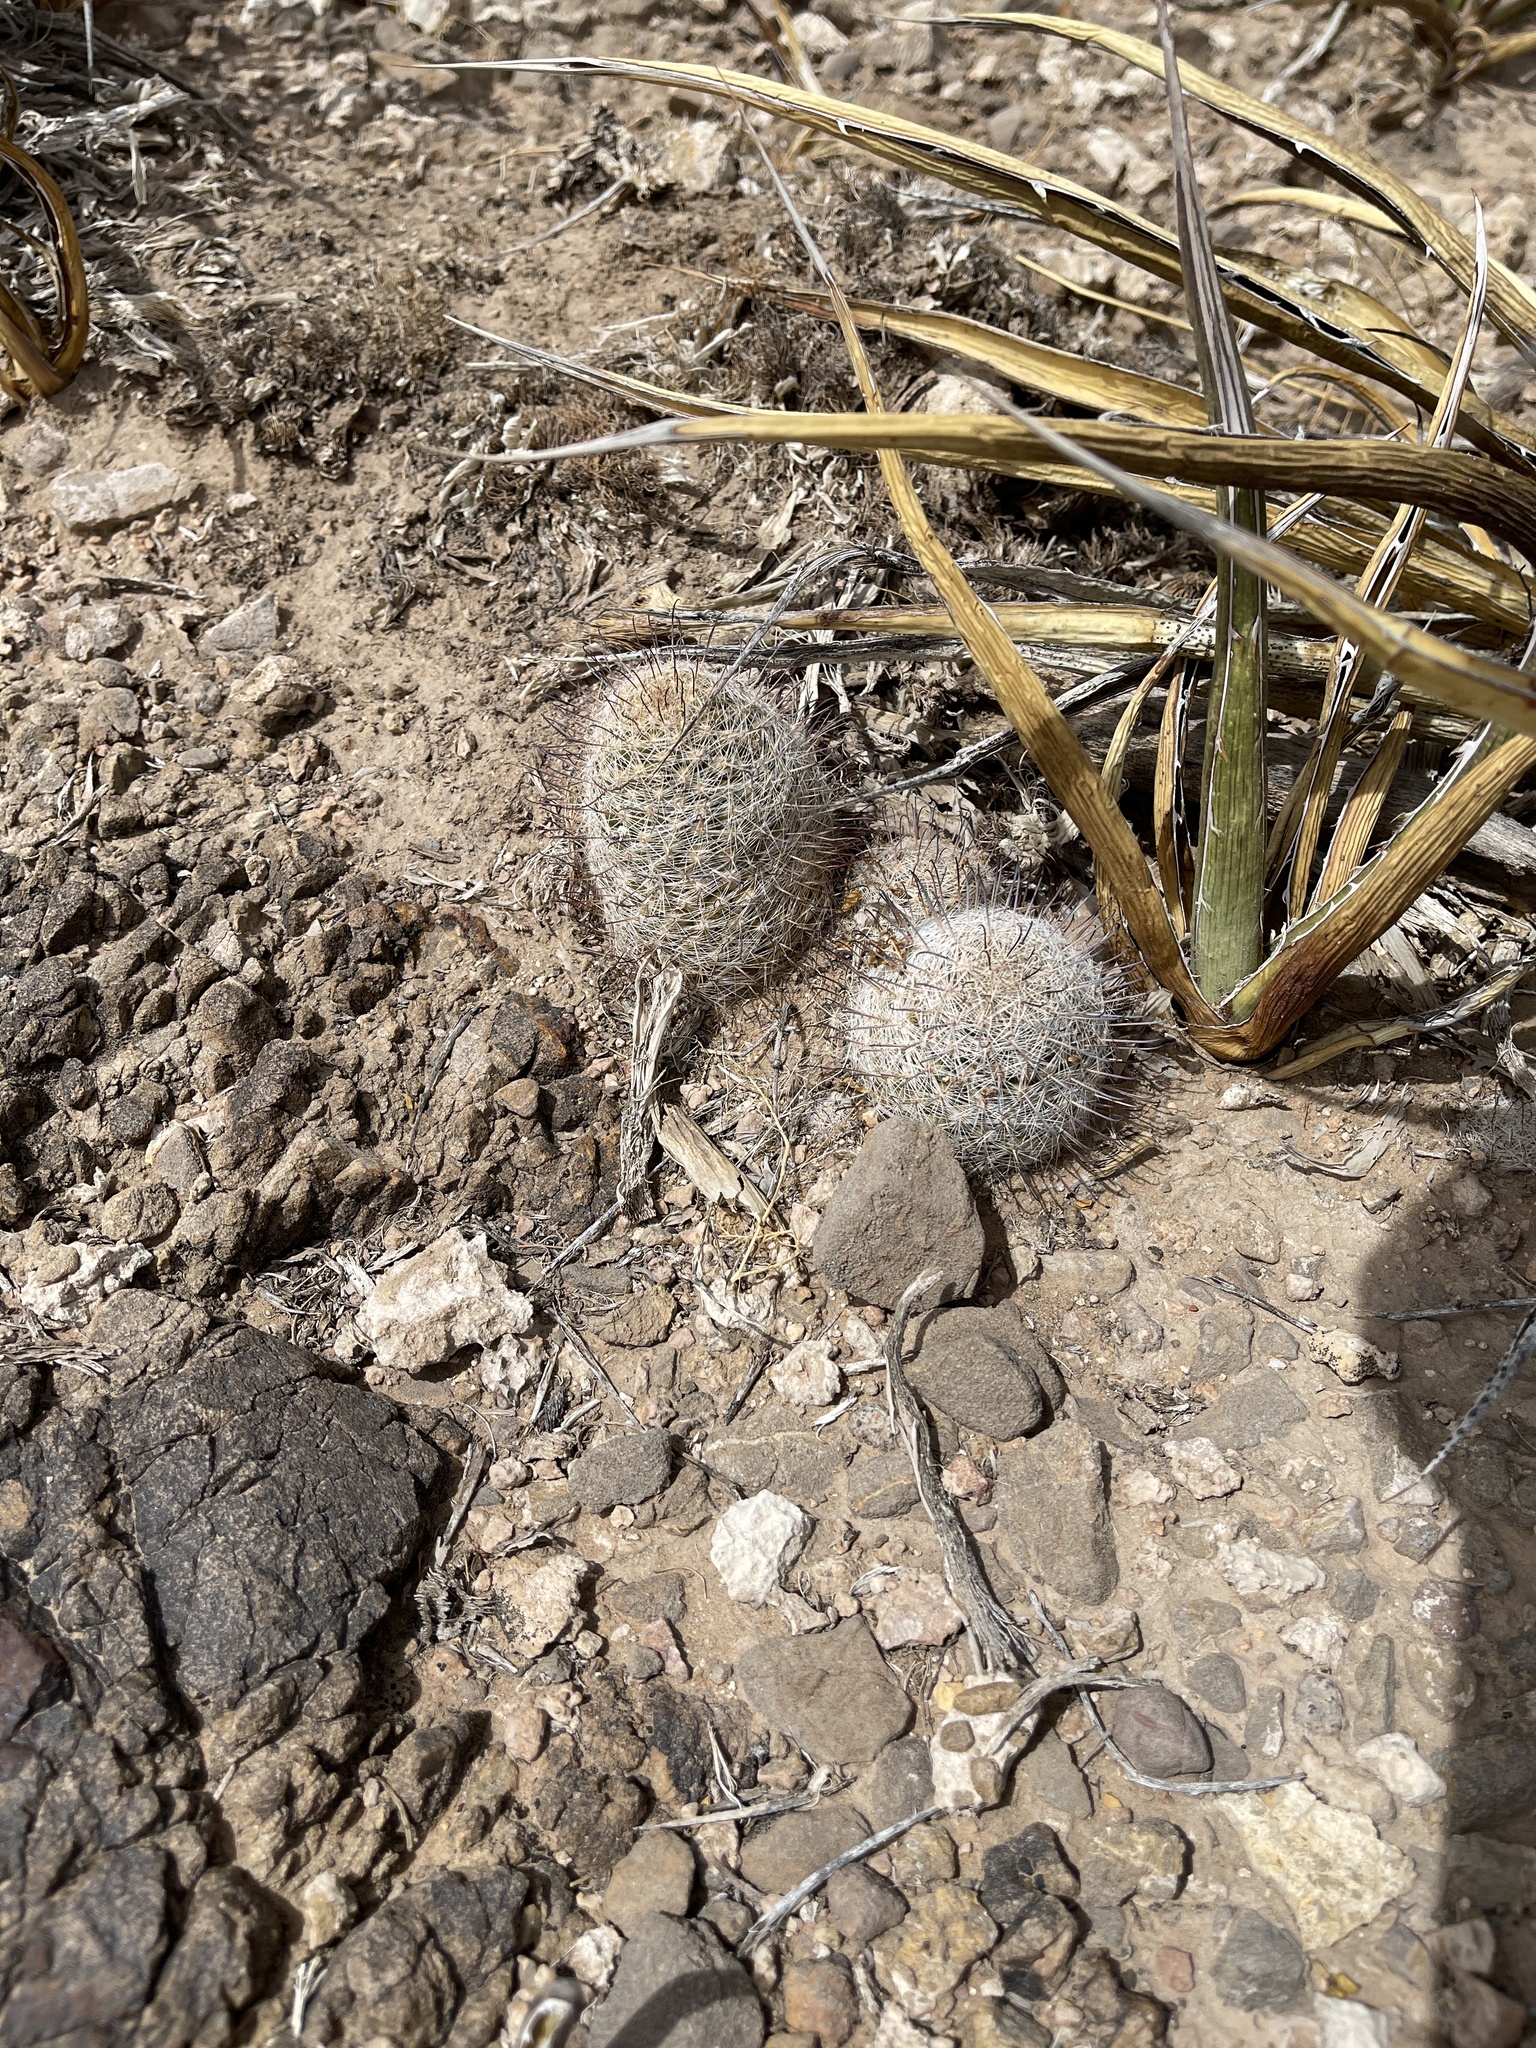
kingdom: Plantae
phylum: Tracheophyta
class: Magnoliopsida
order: Caryophyllales
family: Cactaceae
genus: Cochemiea
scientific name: Cochemiea grahamii
